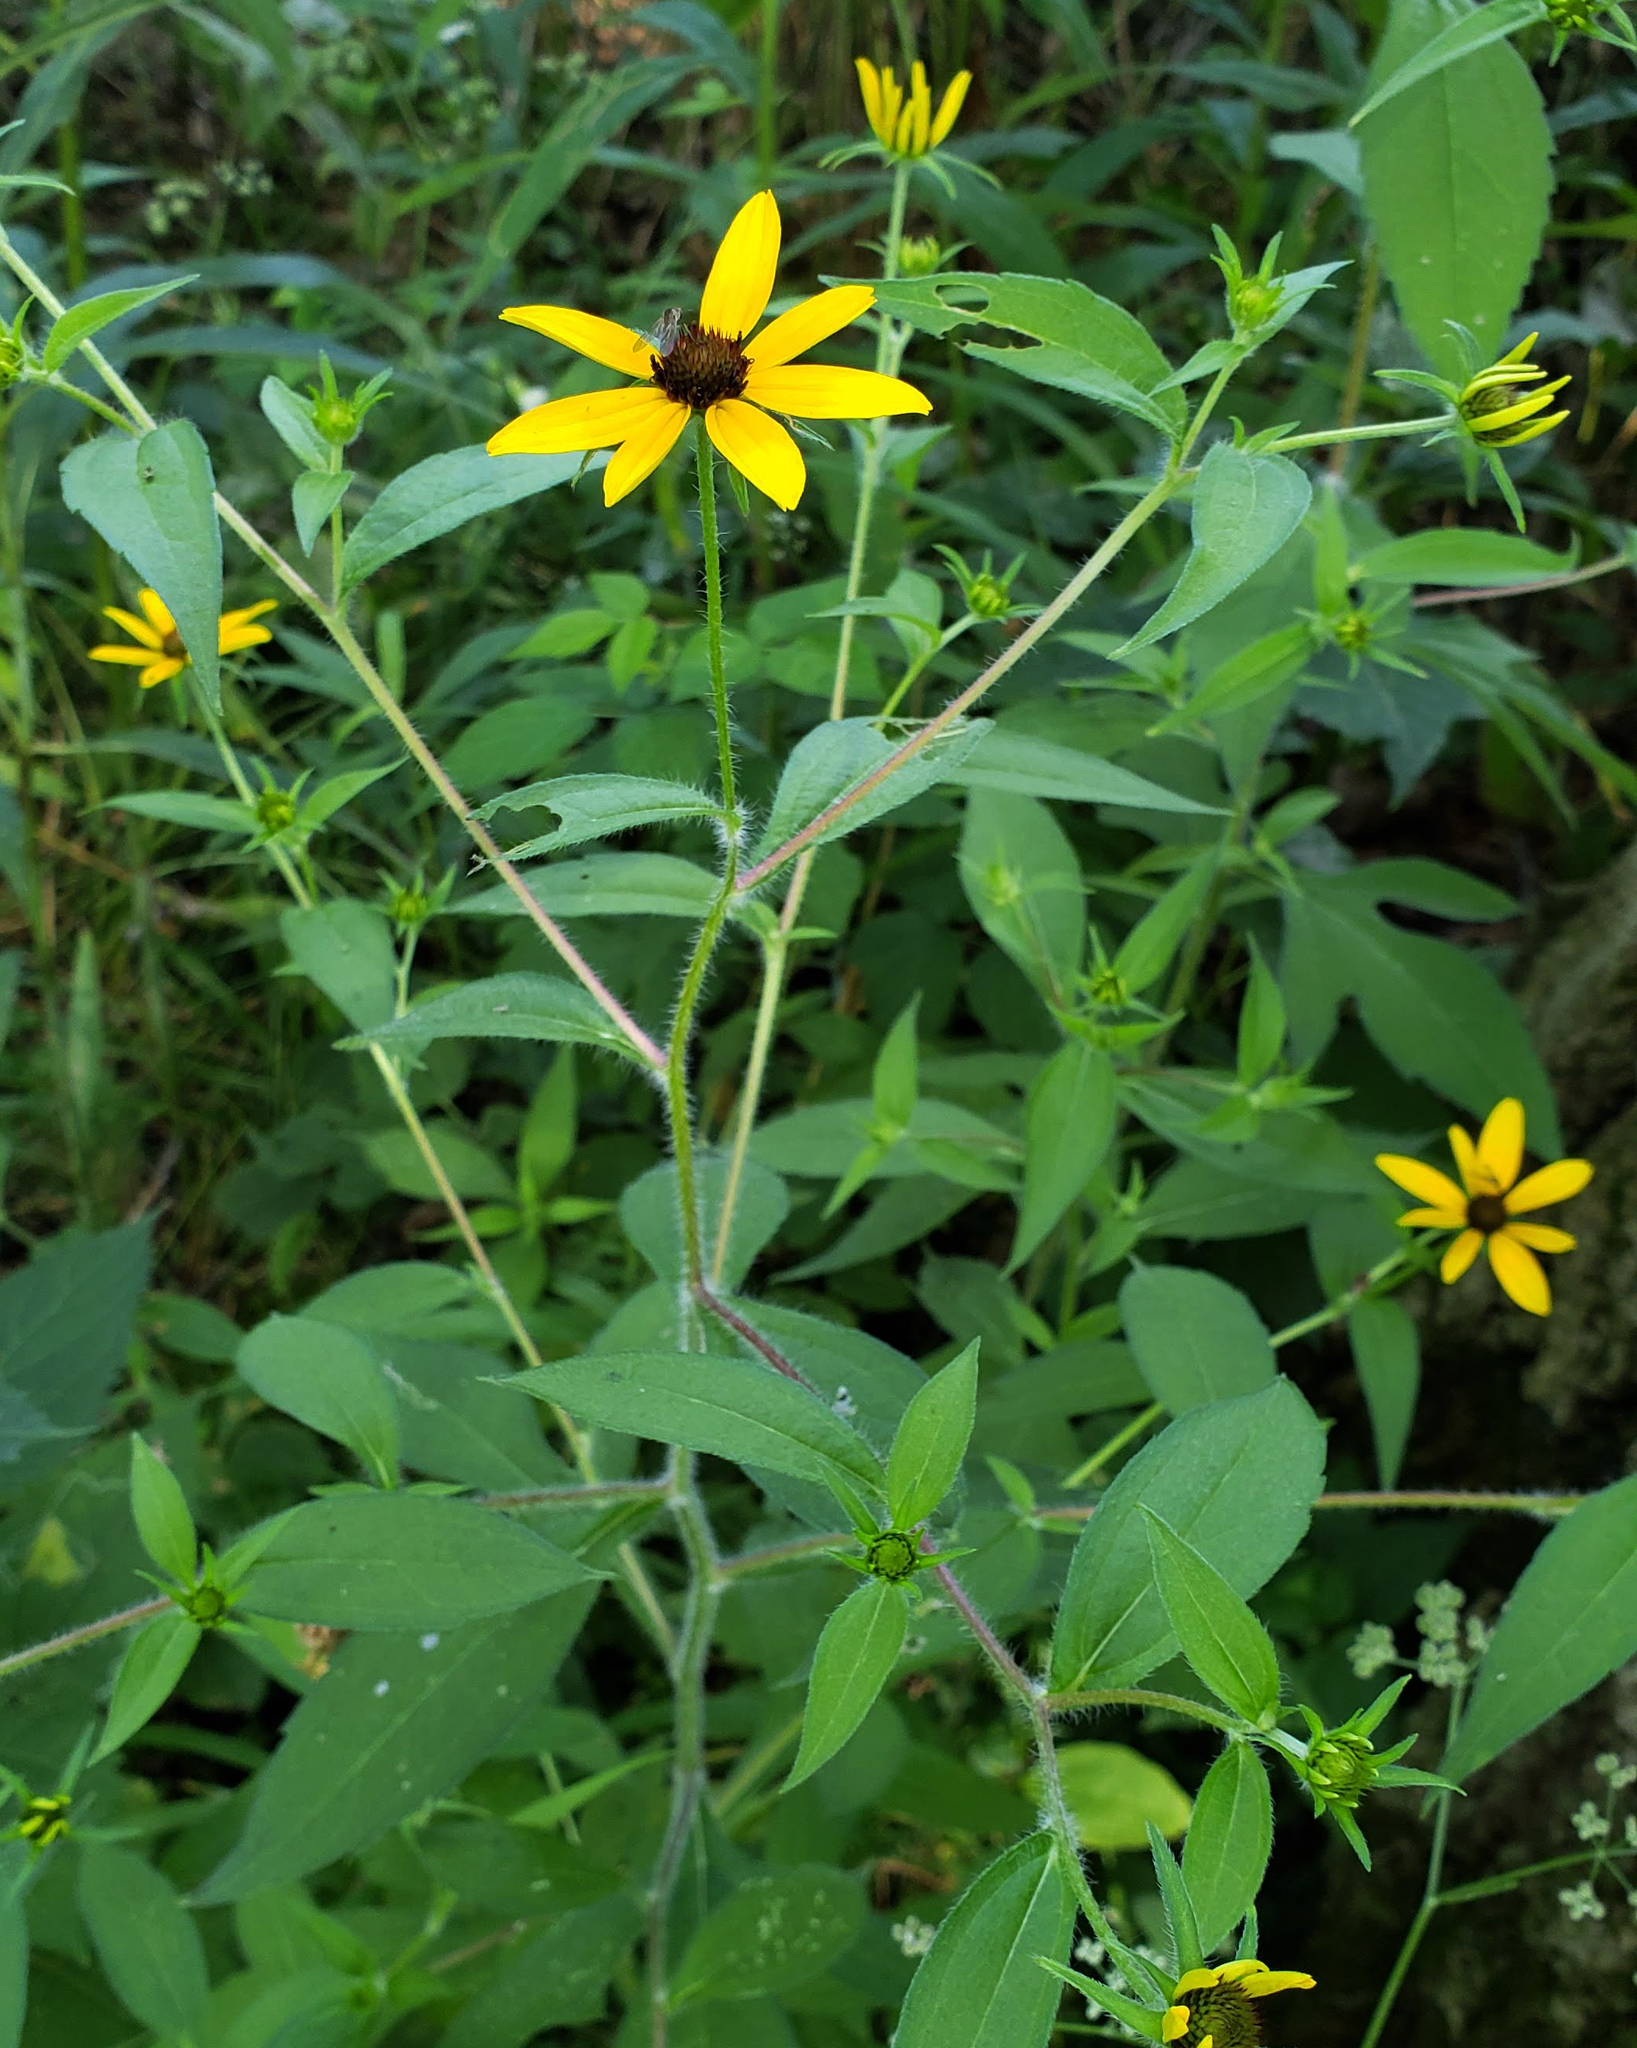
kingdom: Plantae
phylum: Tracheophyta
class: Magnoliopsida
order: Asterales
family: Asteraceae
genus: Rudbeckia
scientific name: Rudbeckia triloba
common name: Thin-leaved coneflower
